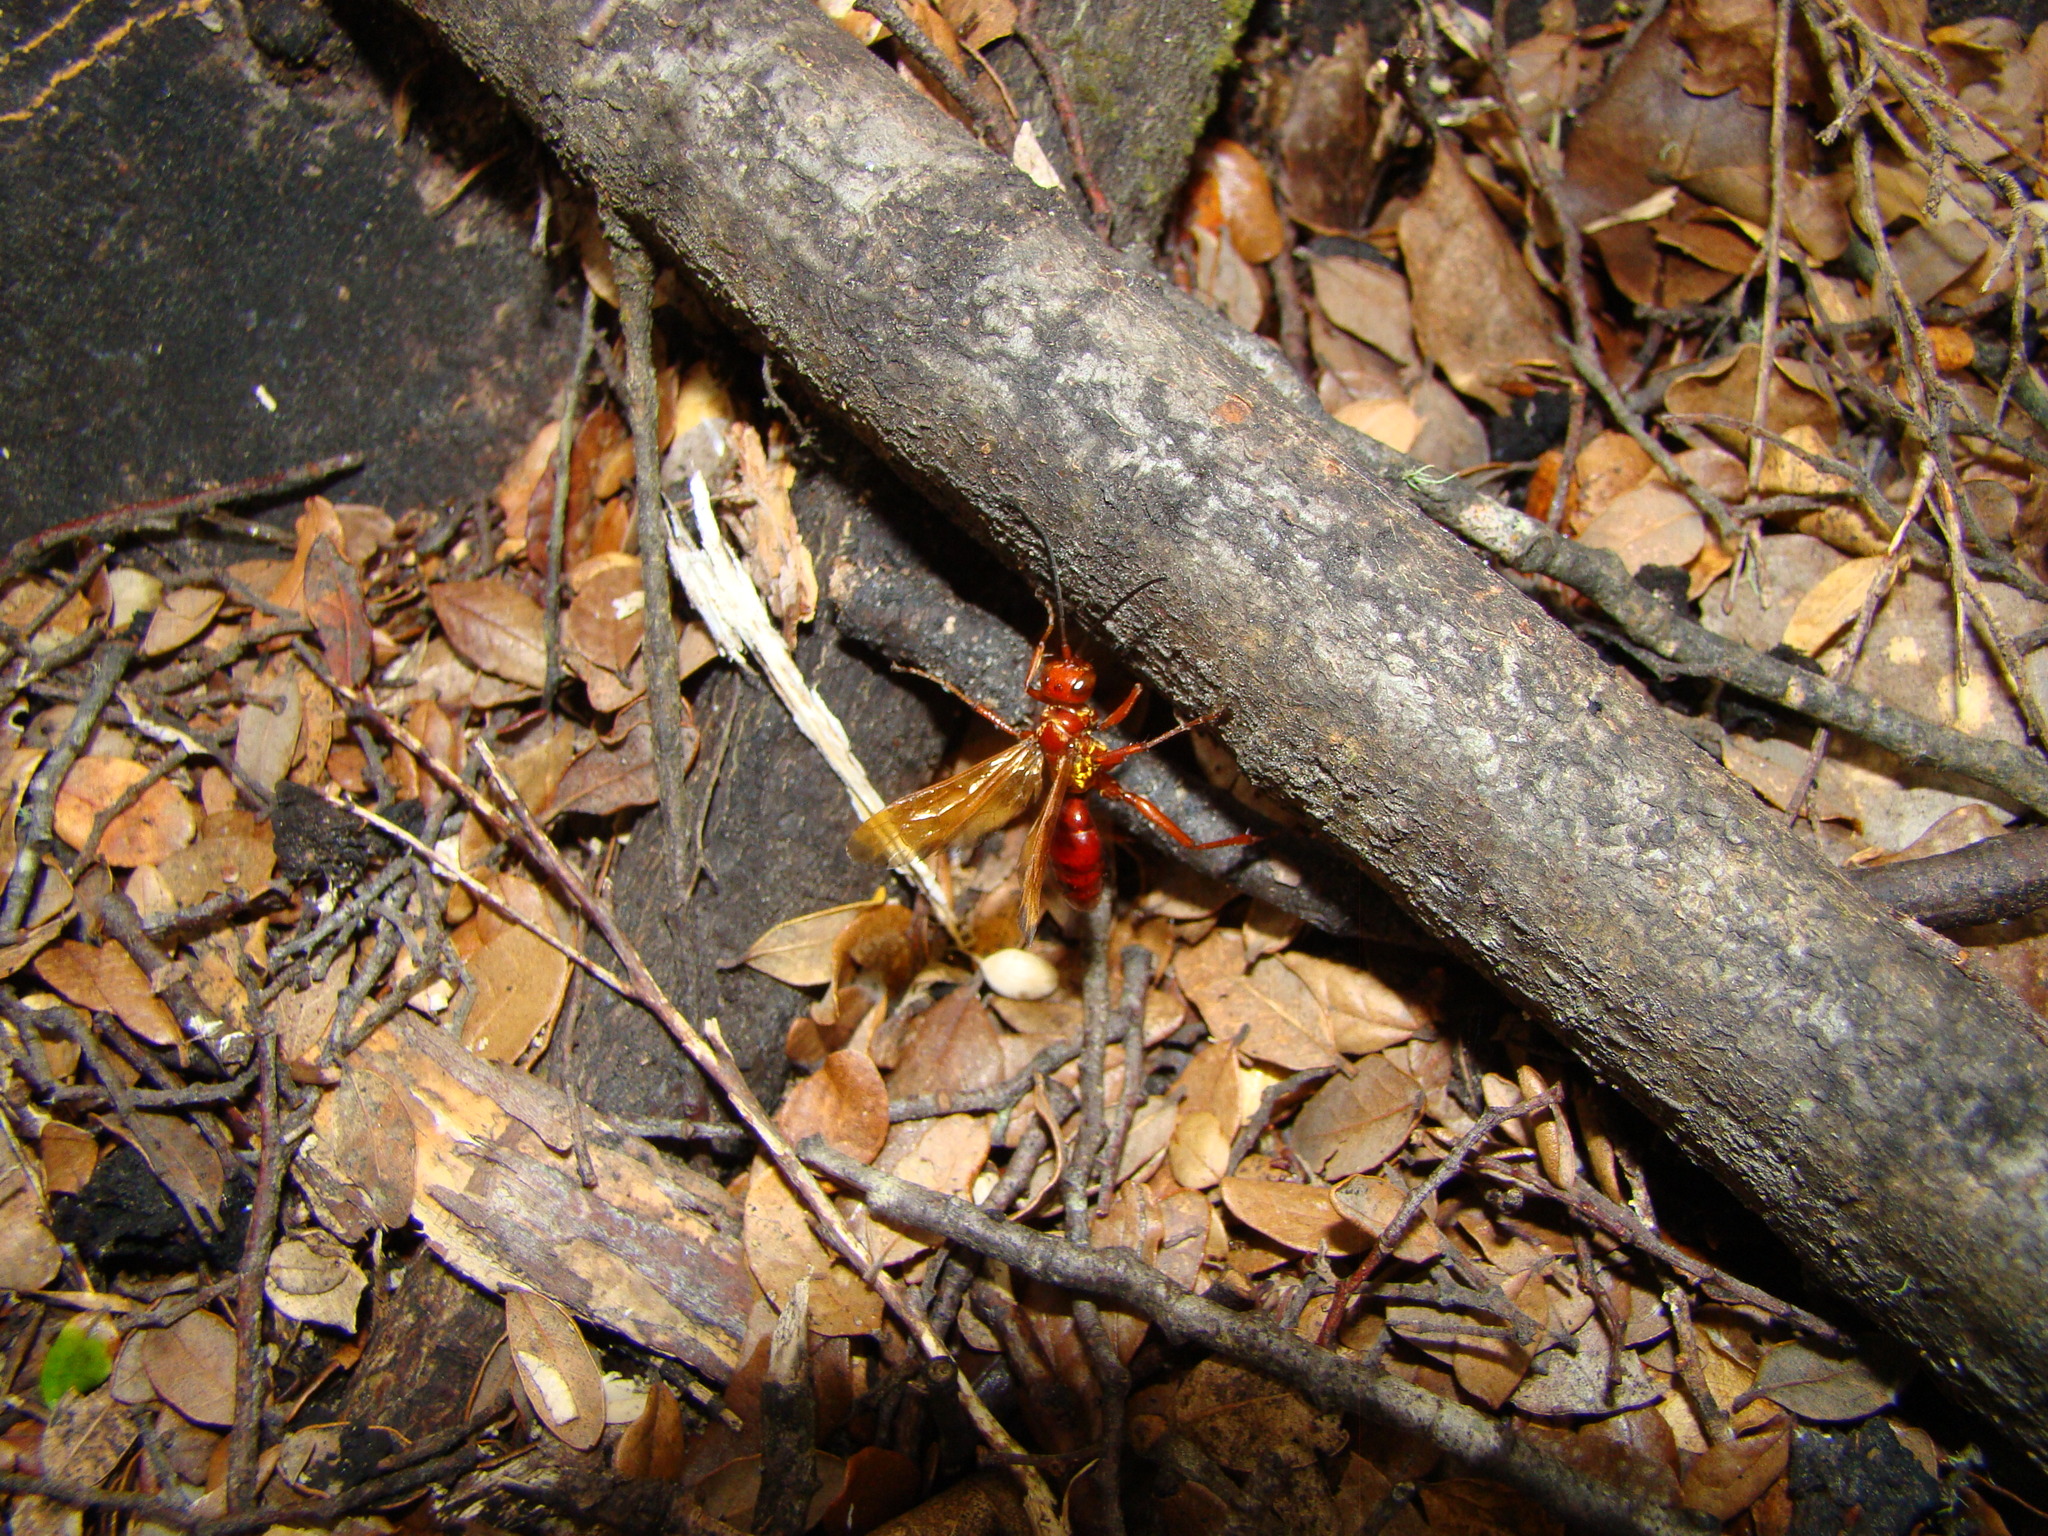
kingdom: Animalia
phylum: Arthropoda
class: Insecta
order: Hymenoptera
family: Pompilidae
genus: Sphictostethus
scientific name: Sphictostethus nitidus
